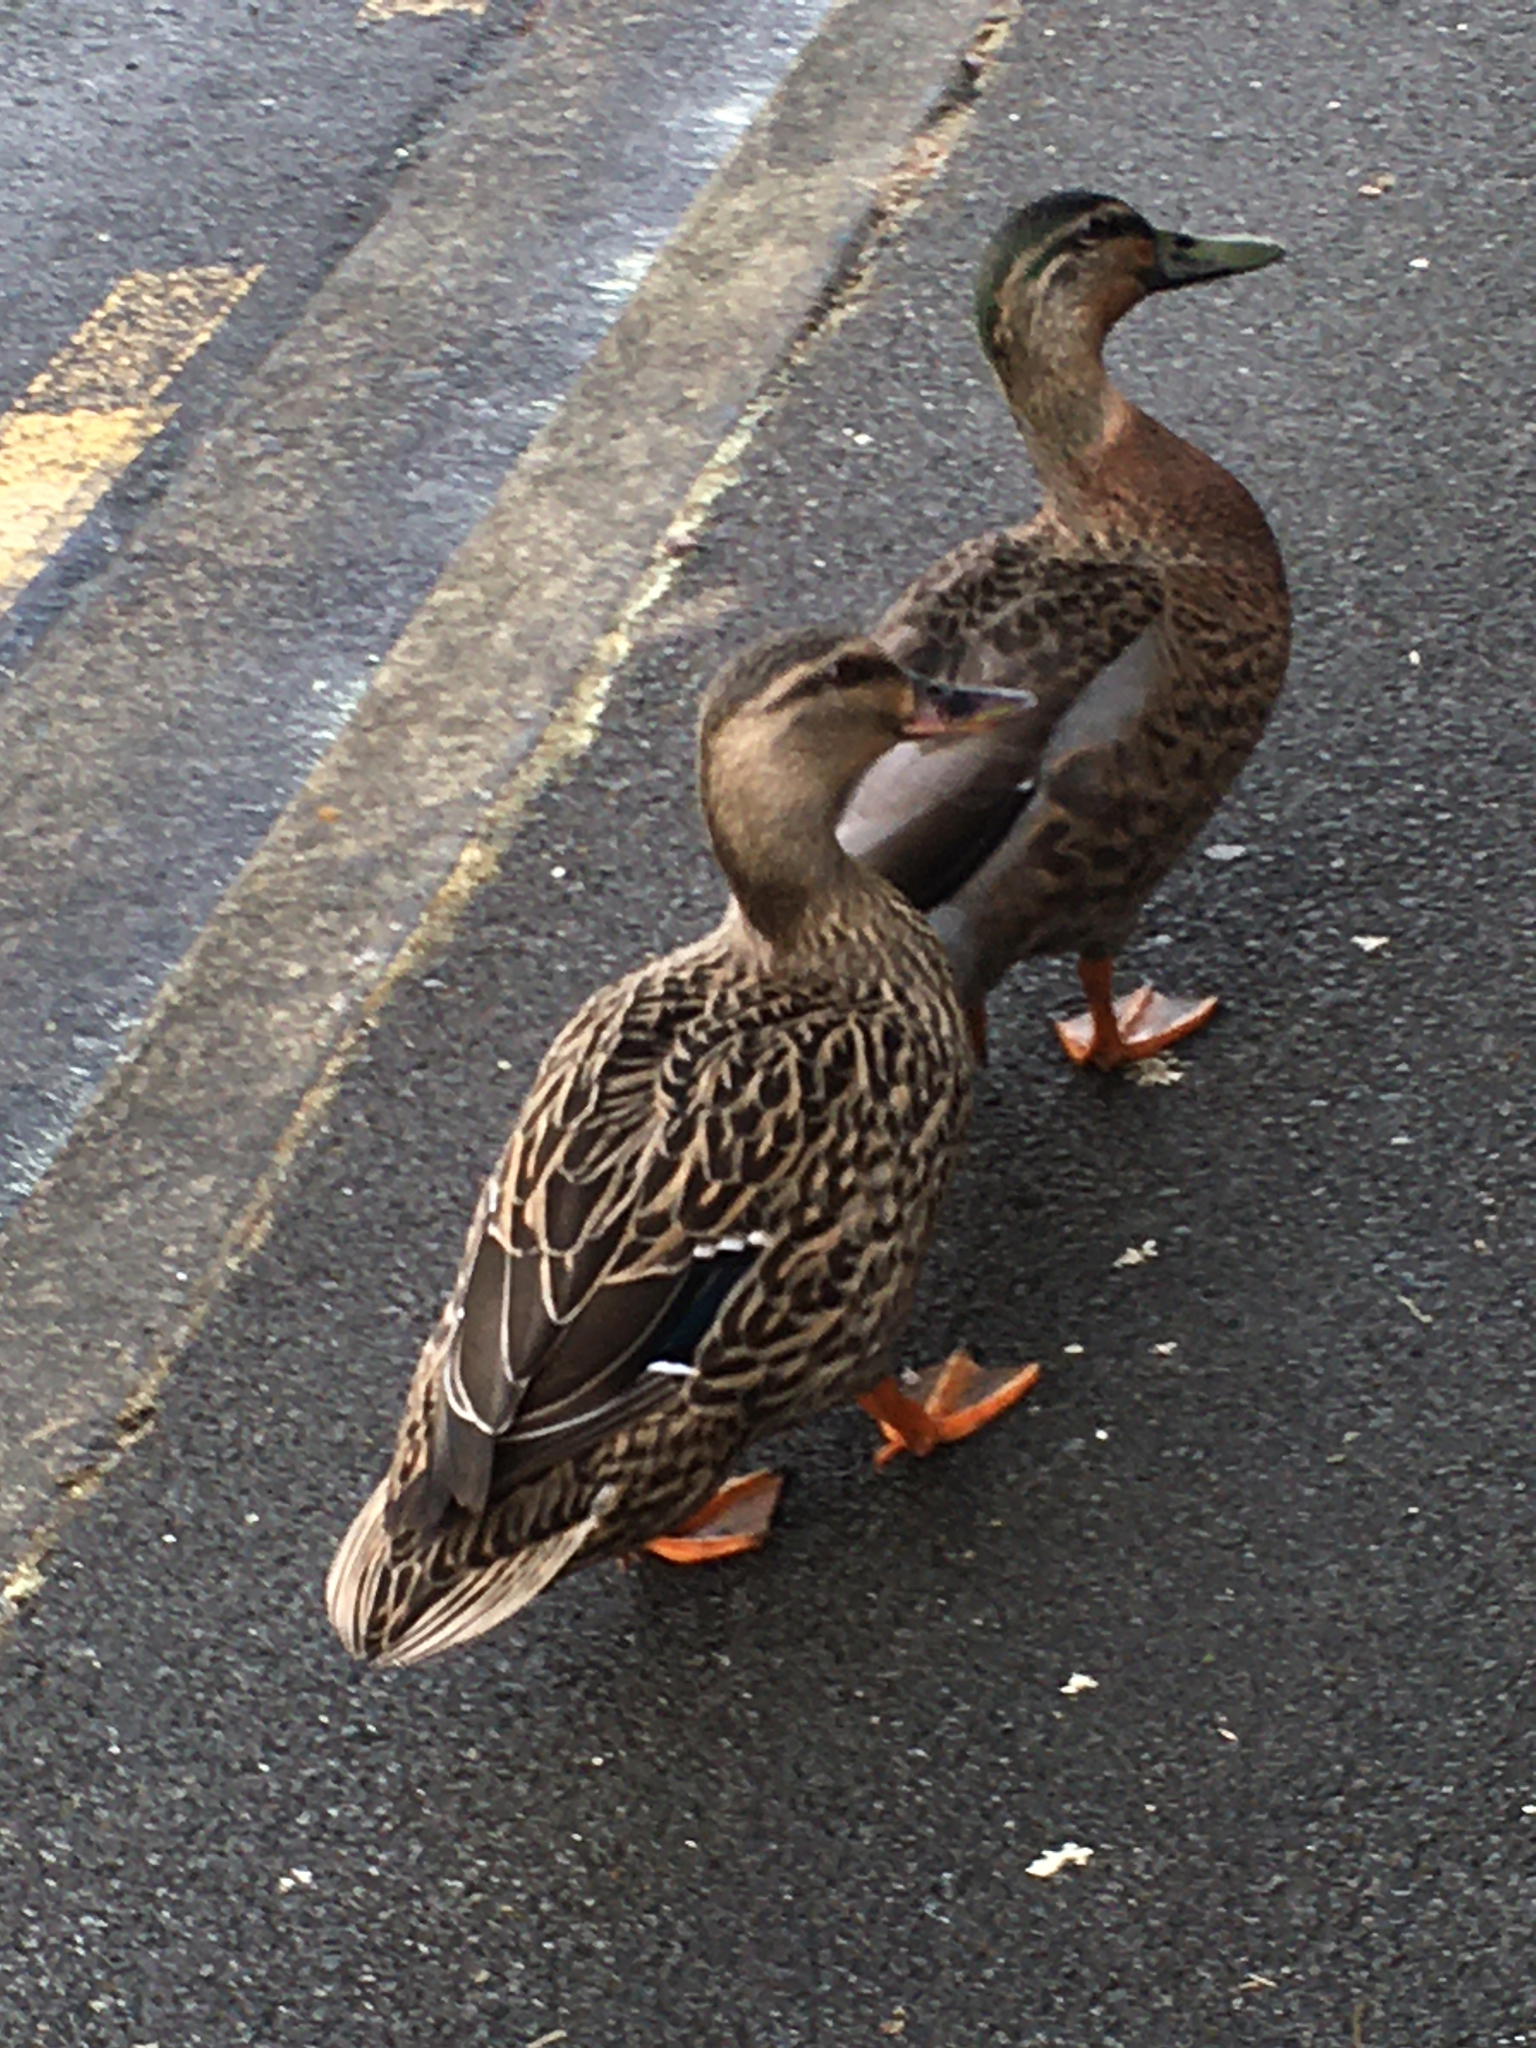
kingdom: Animalia
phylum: Chordata
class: Aves
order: Anseriformes
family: Anatidae
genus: Anas
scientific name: Anas
